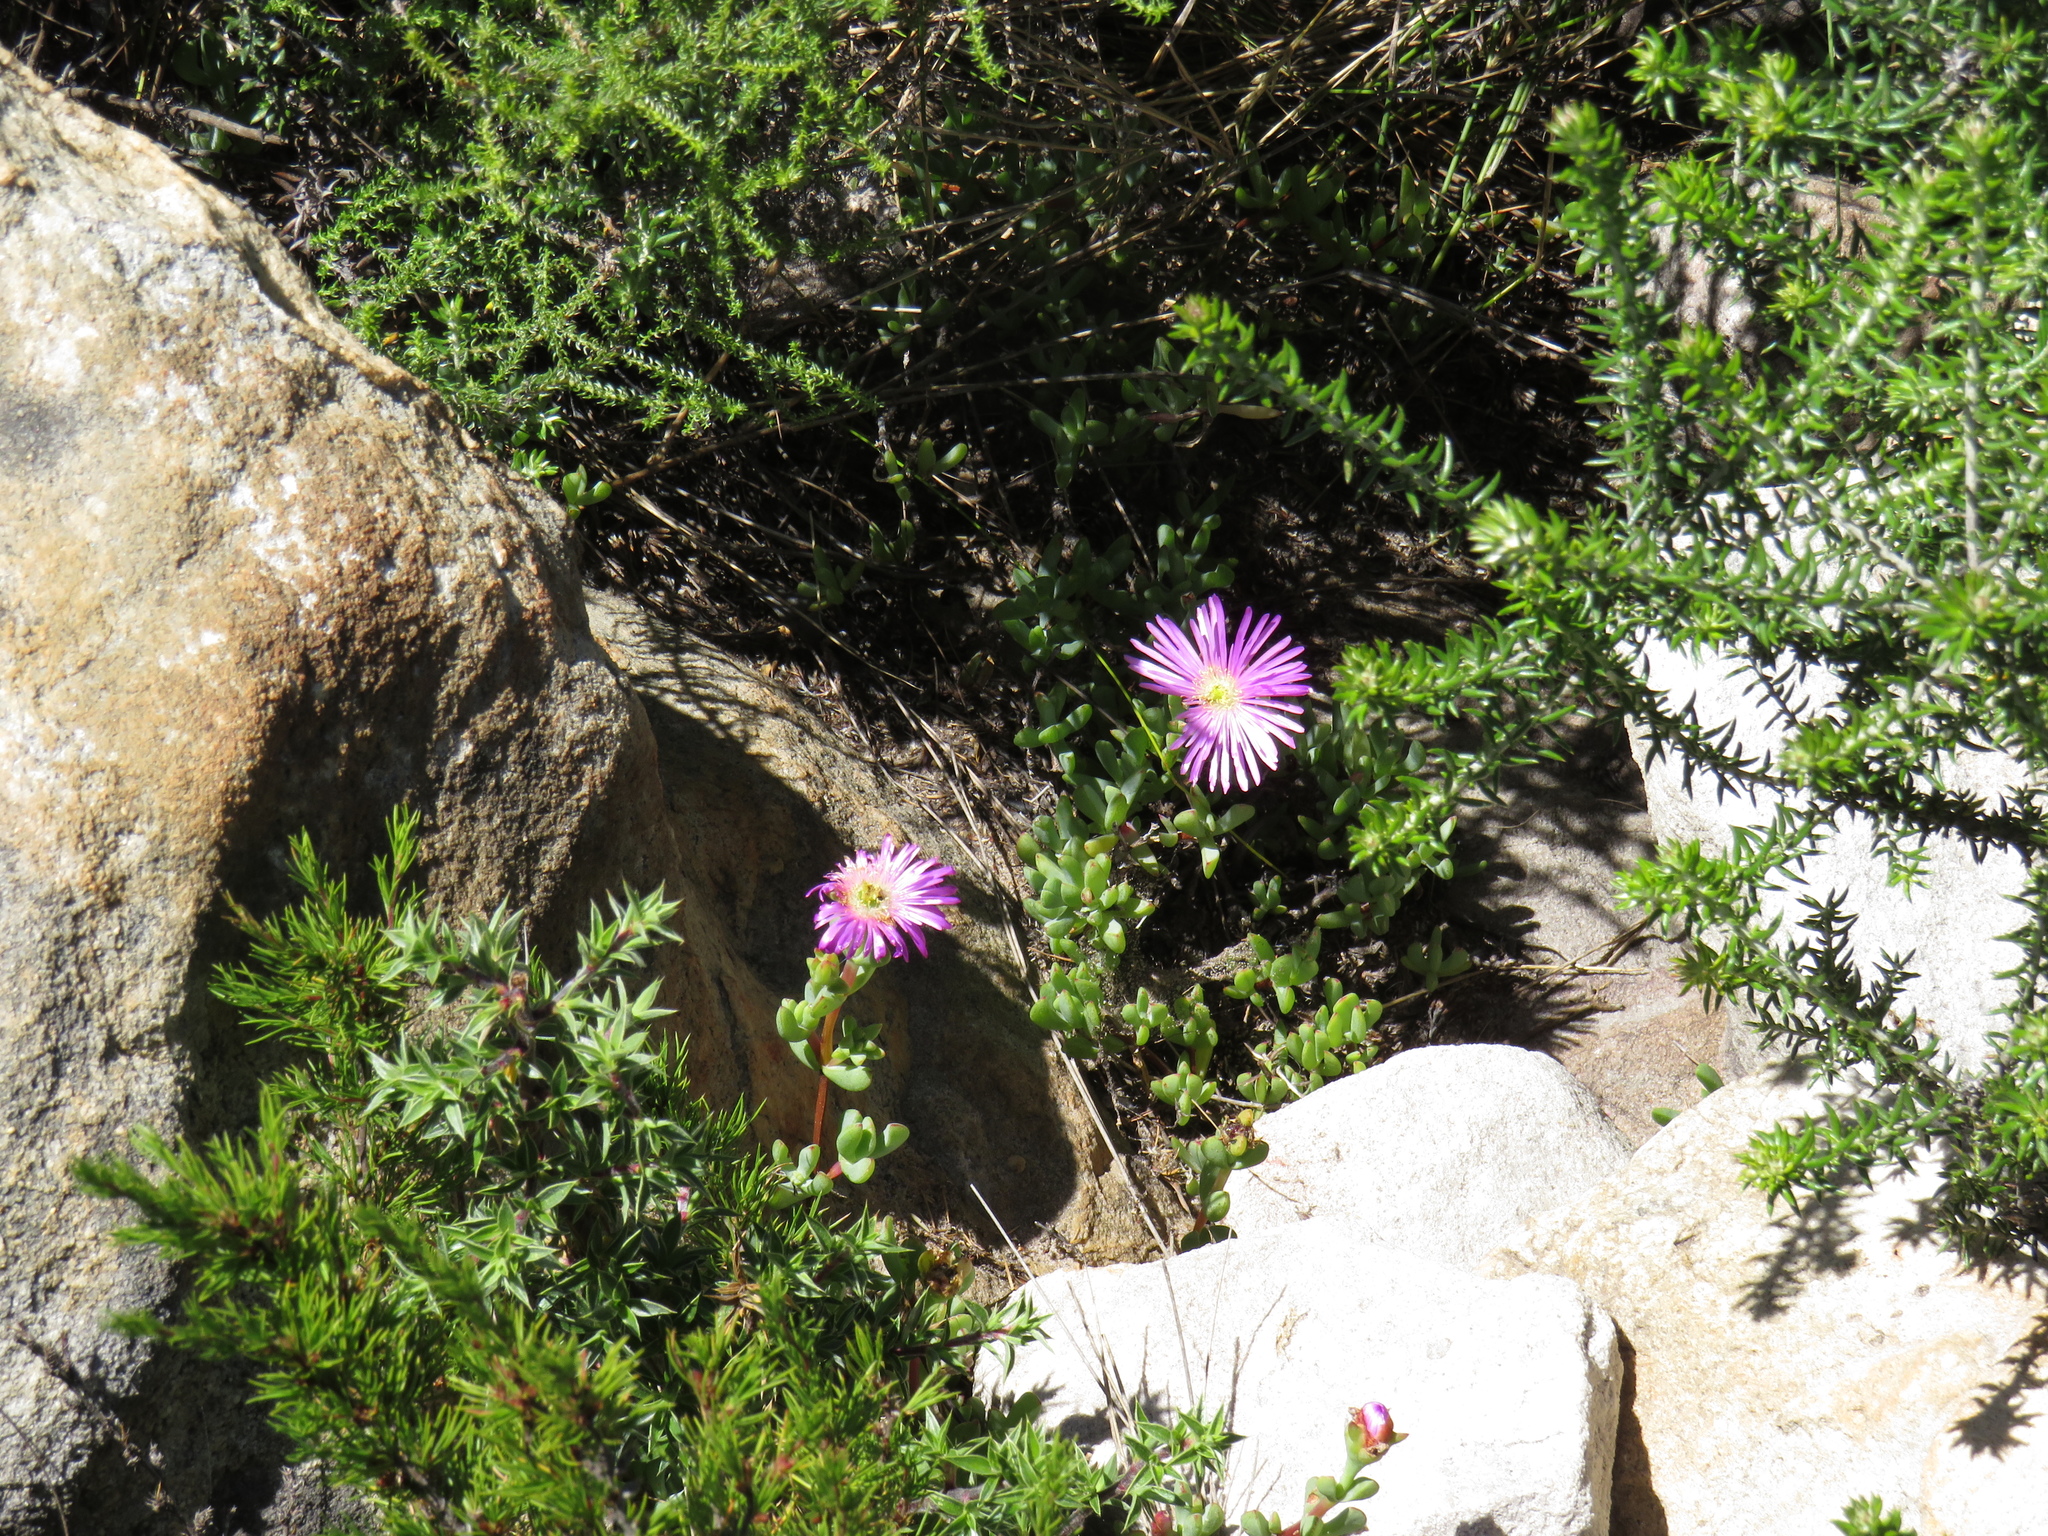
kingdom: Plantae
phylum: Tracheophyta
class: Magnoliopsida
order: Caryophyllales
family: Aizoaceae
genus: Oscularia
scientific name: Oscularia falciformis
